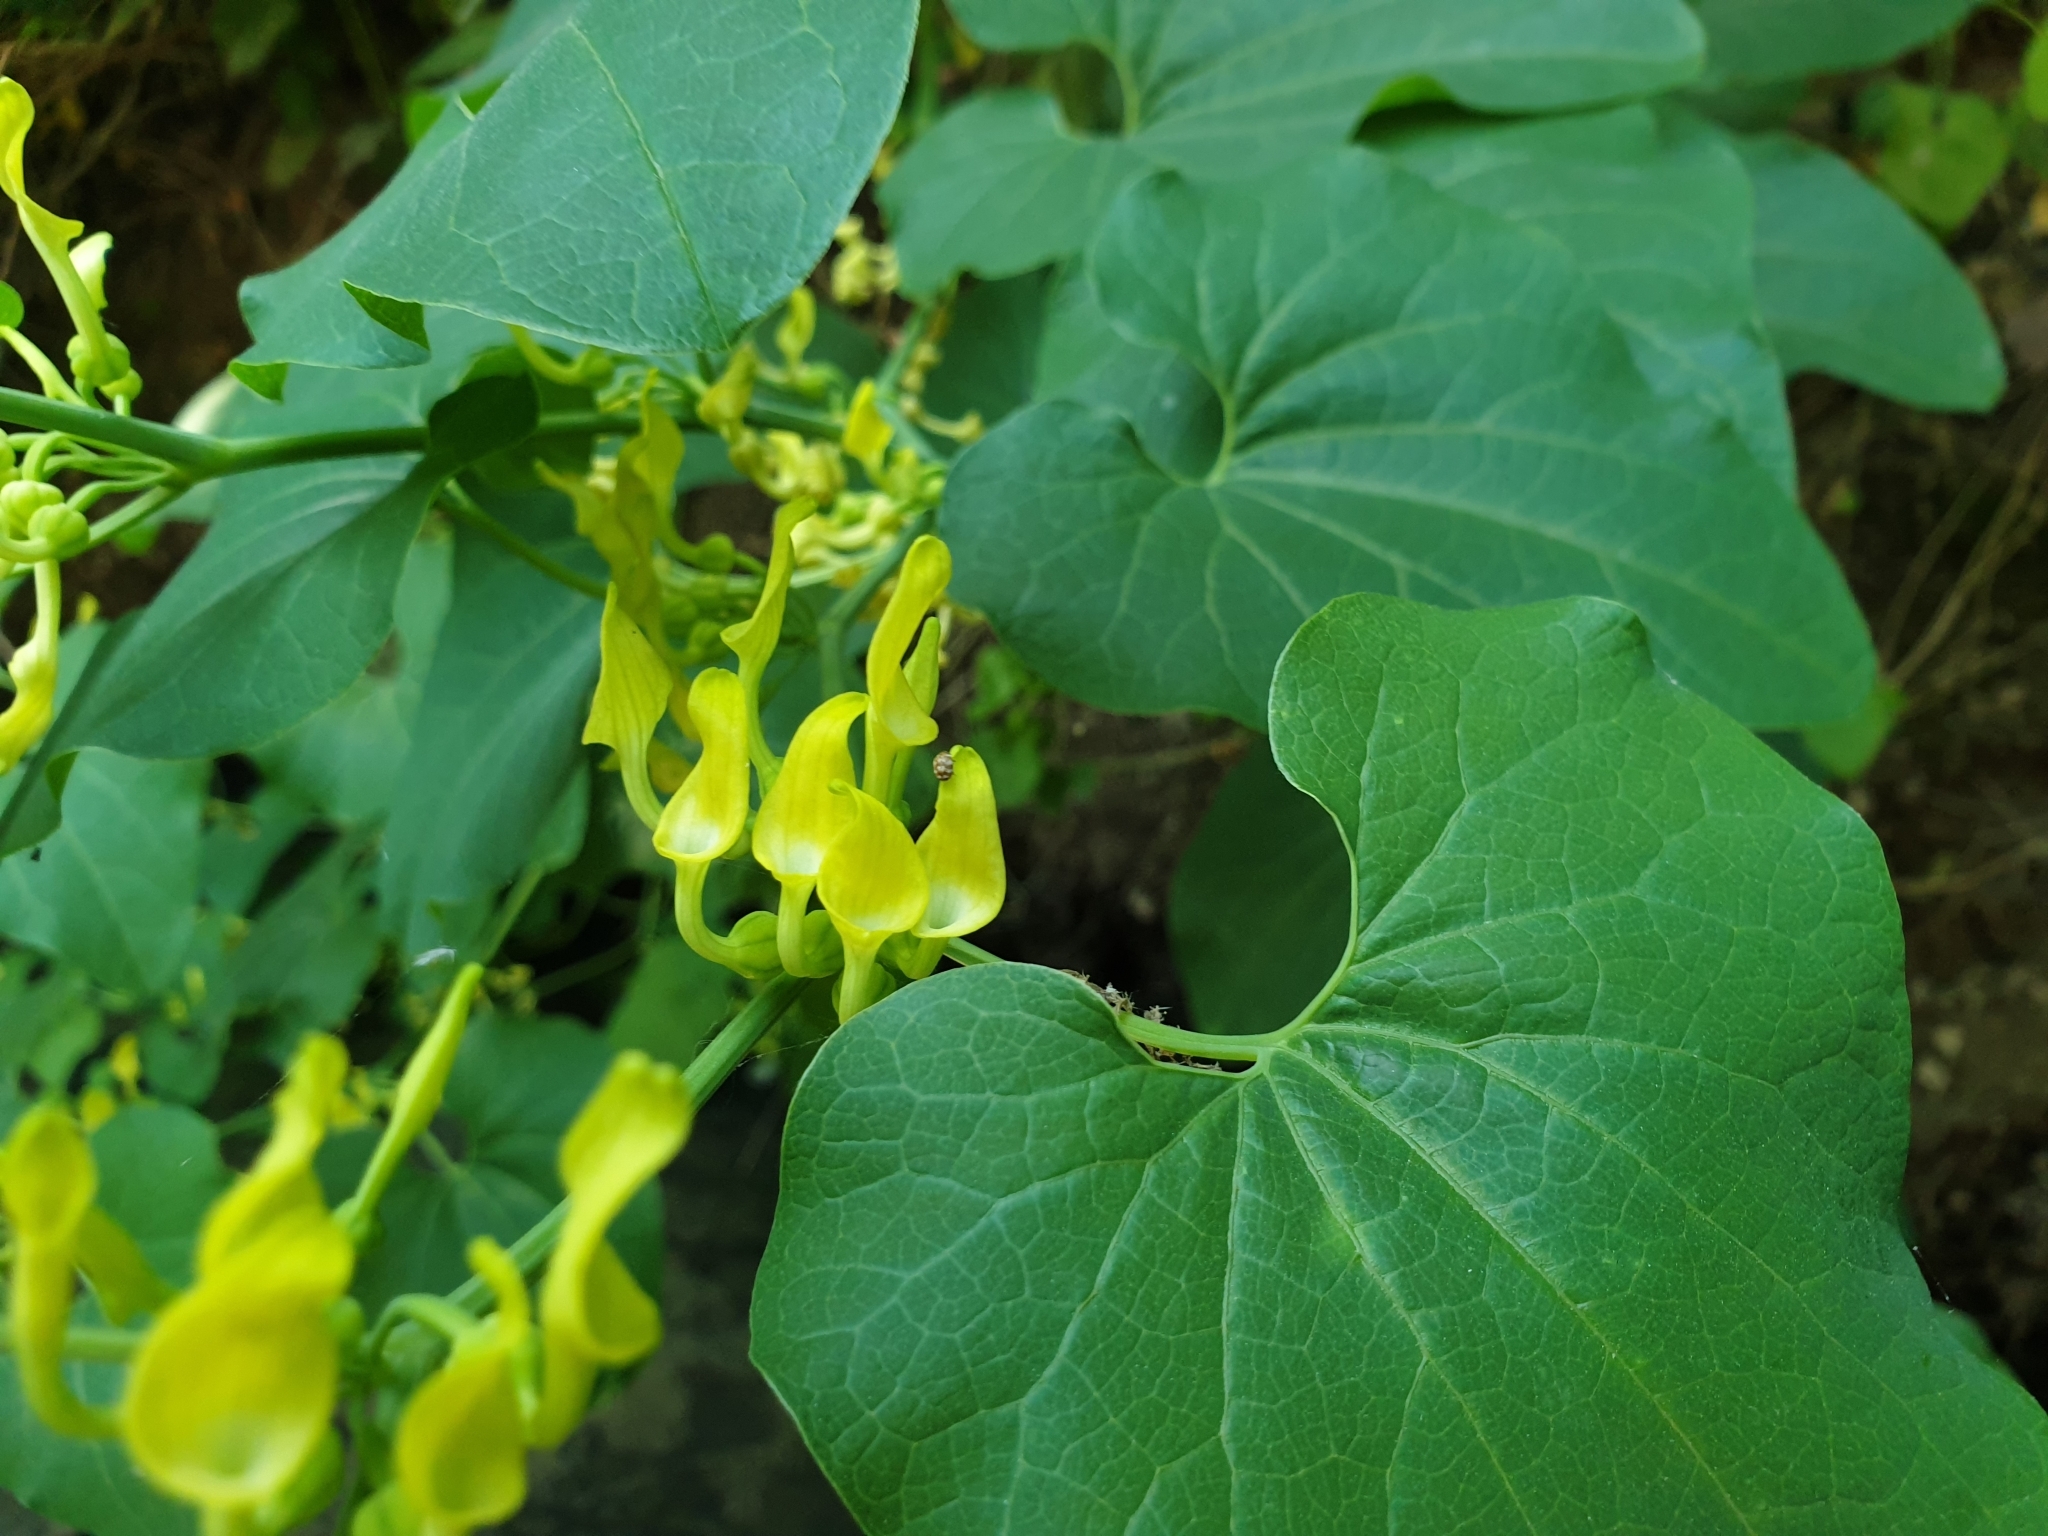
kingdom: Plantae
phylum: Tracheophyta
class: Magnoliopsida
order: Piperales
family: Aristolochiaceae
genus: Aristolochia
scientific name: Aristolochia clematitis
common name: Birthwort
